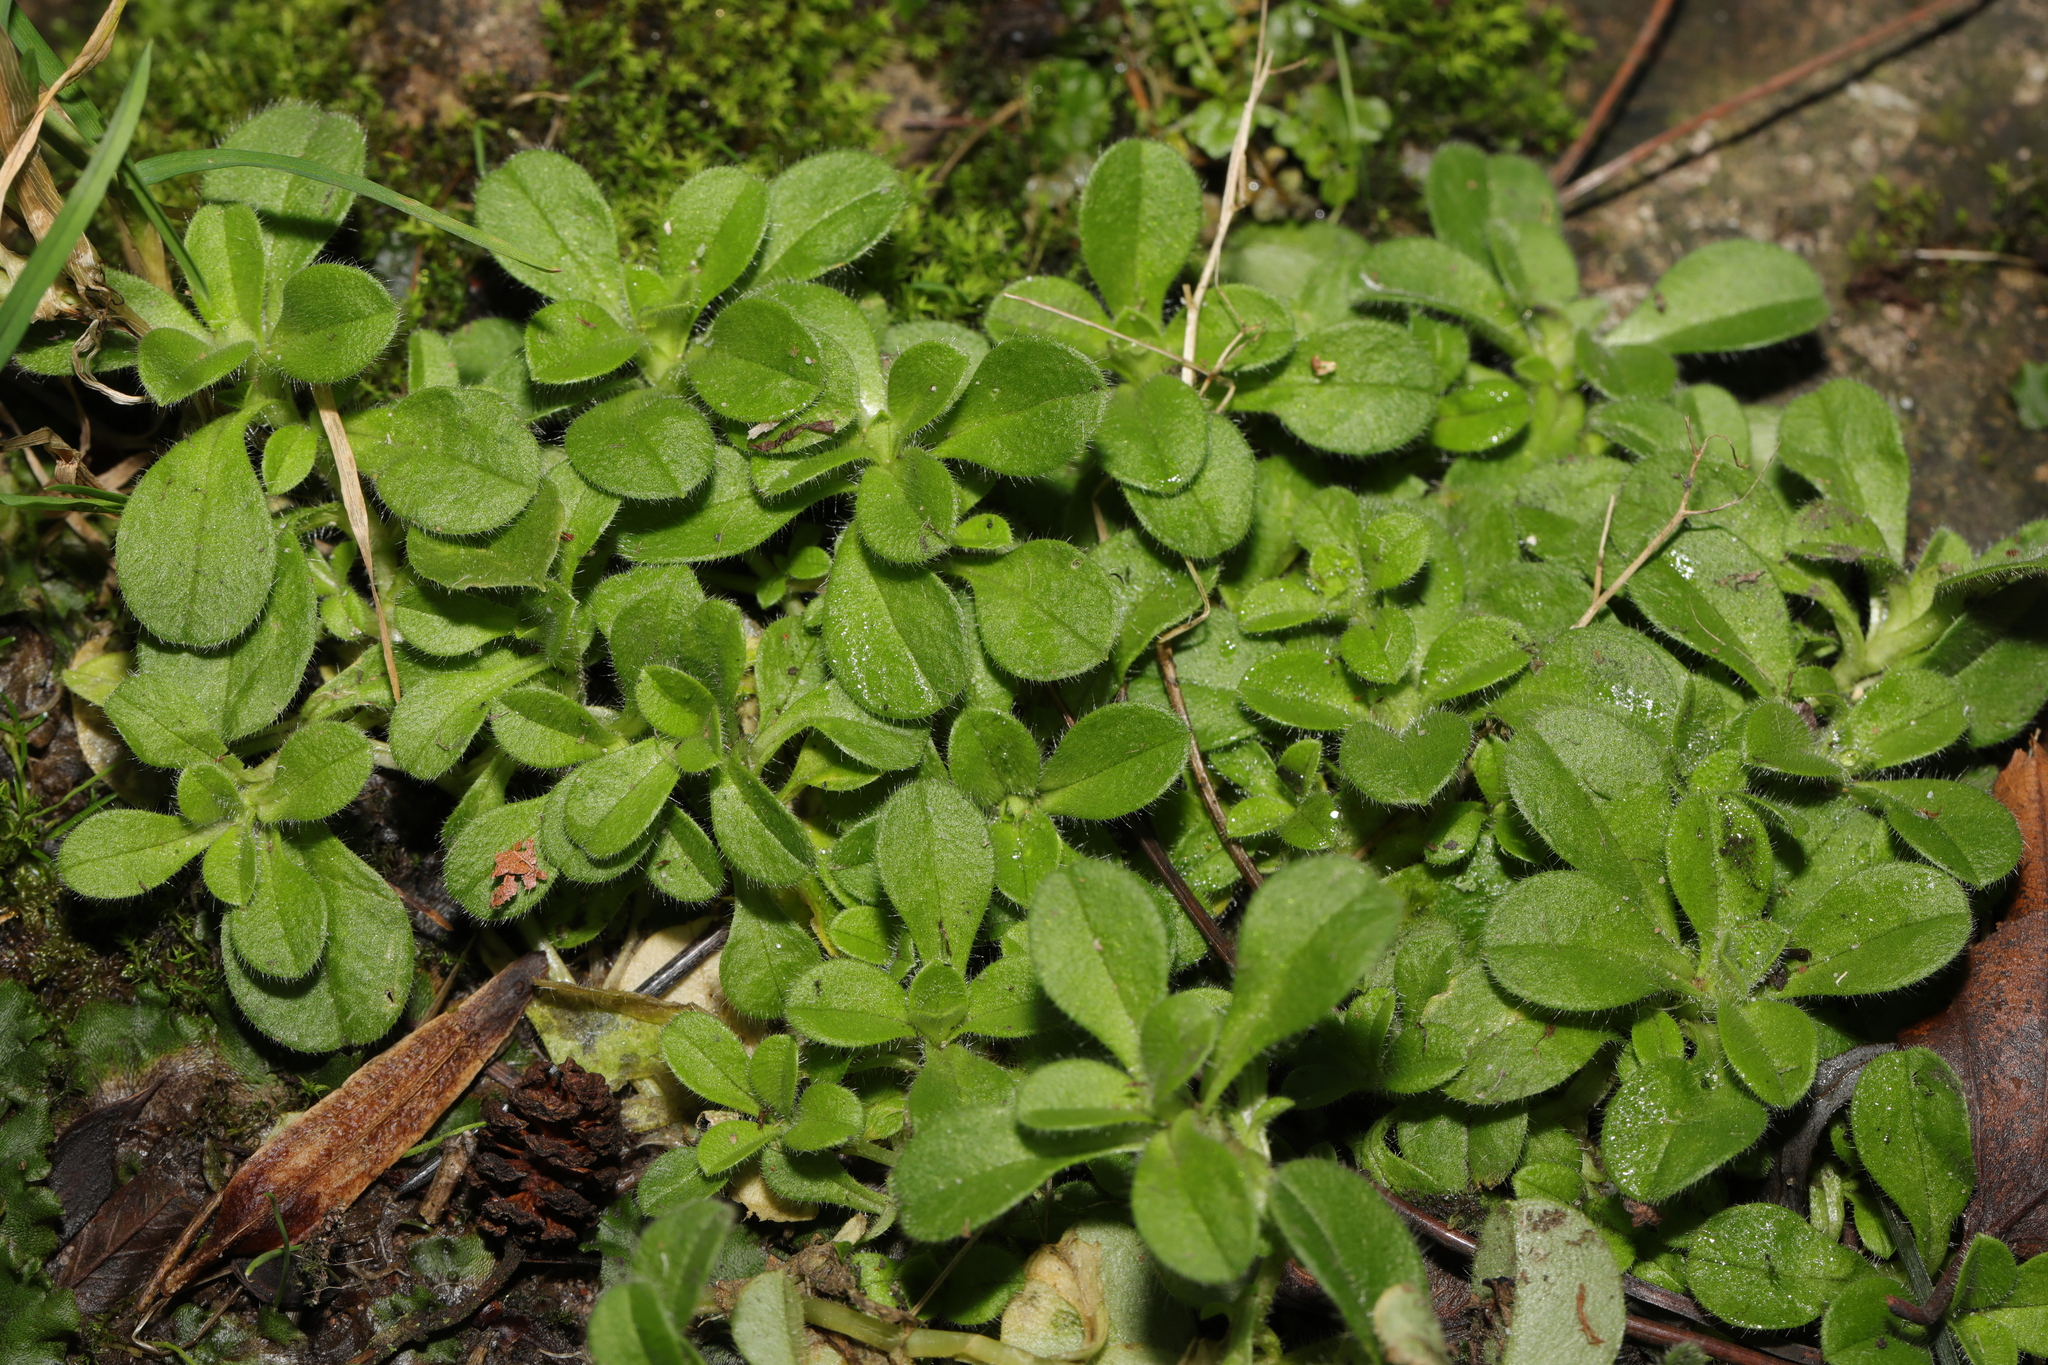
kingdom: Plantae
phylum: Tracheophyta
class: Magnoliopsida
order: Caryophyllales
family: Caryophyllaceae
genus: Cerastium
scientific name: Cerastium fontanum
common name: Common mouse-ear
